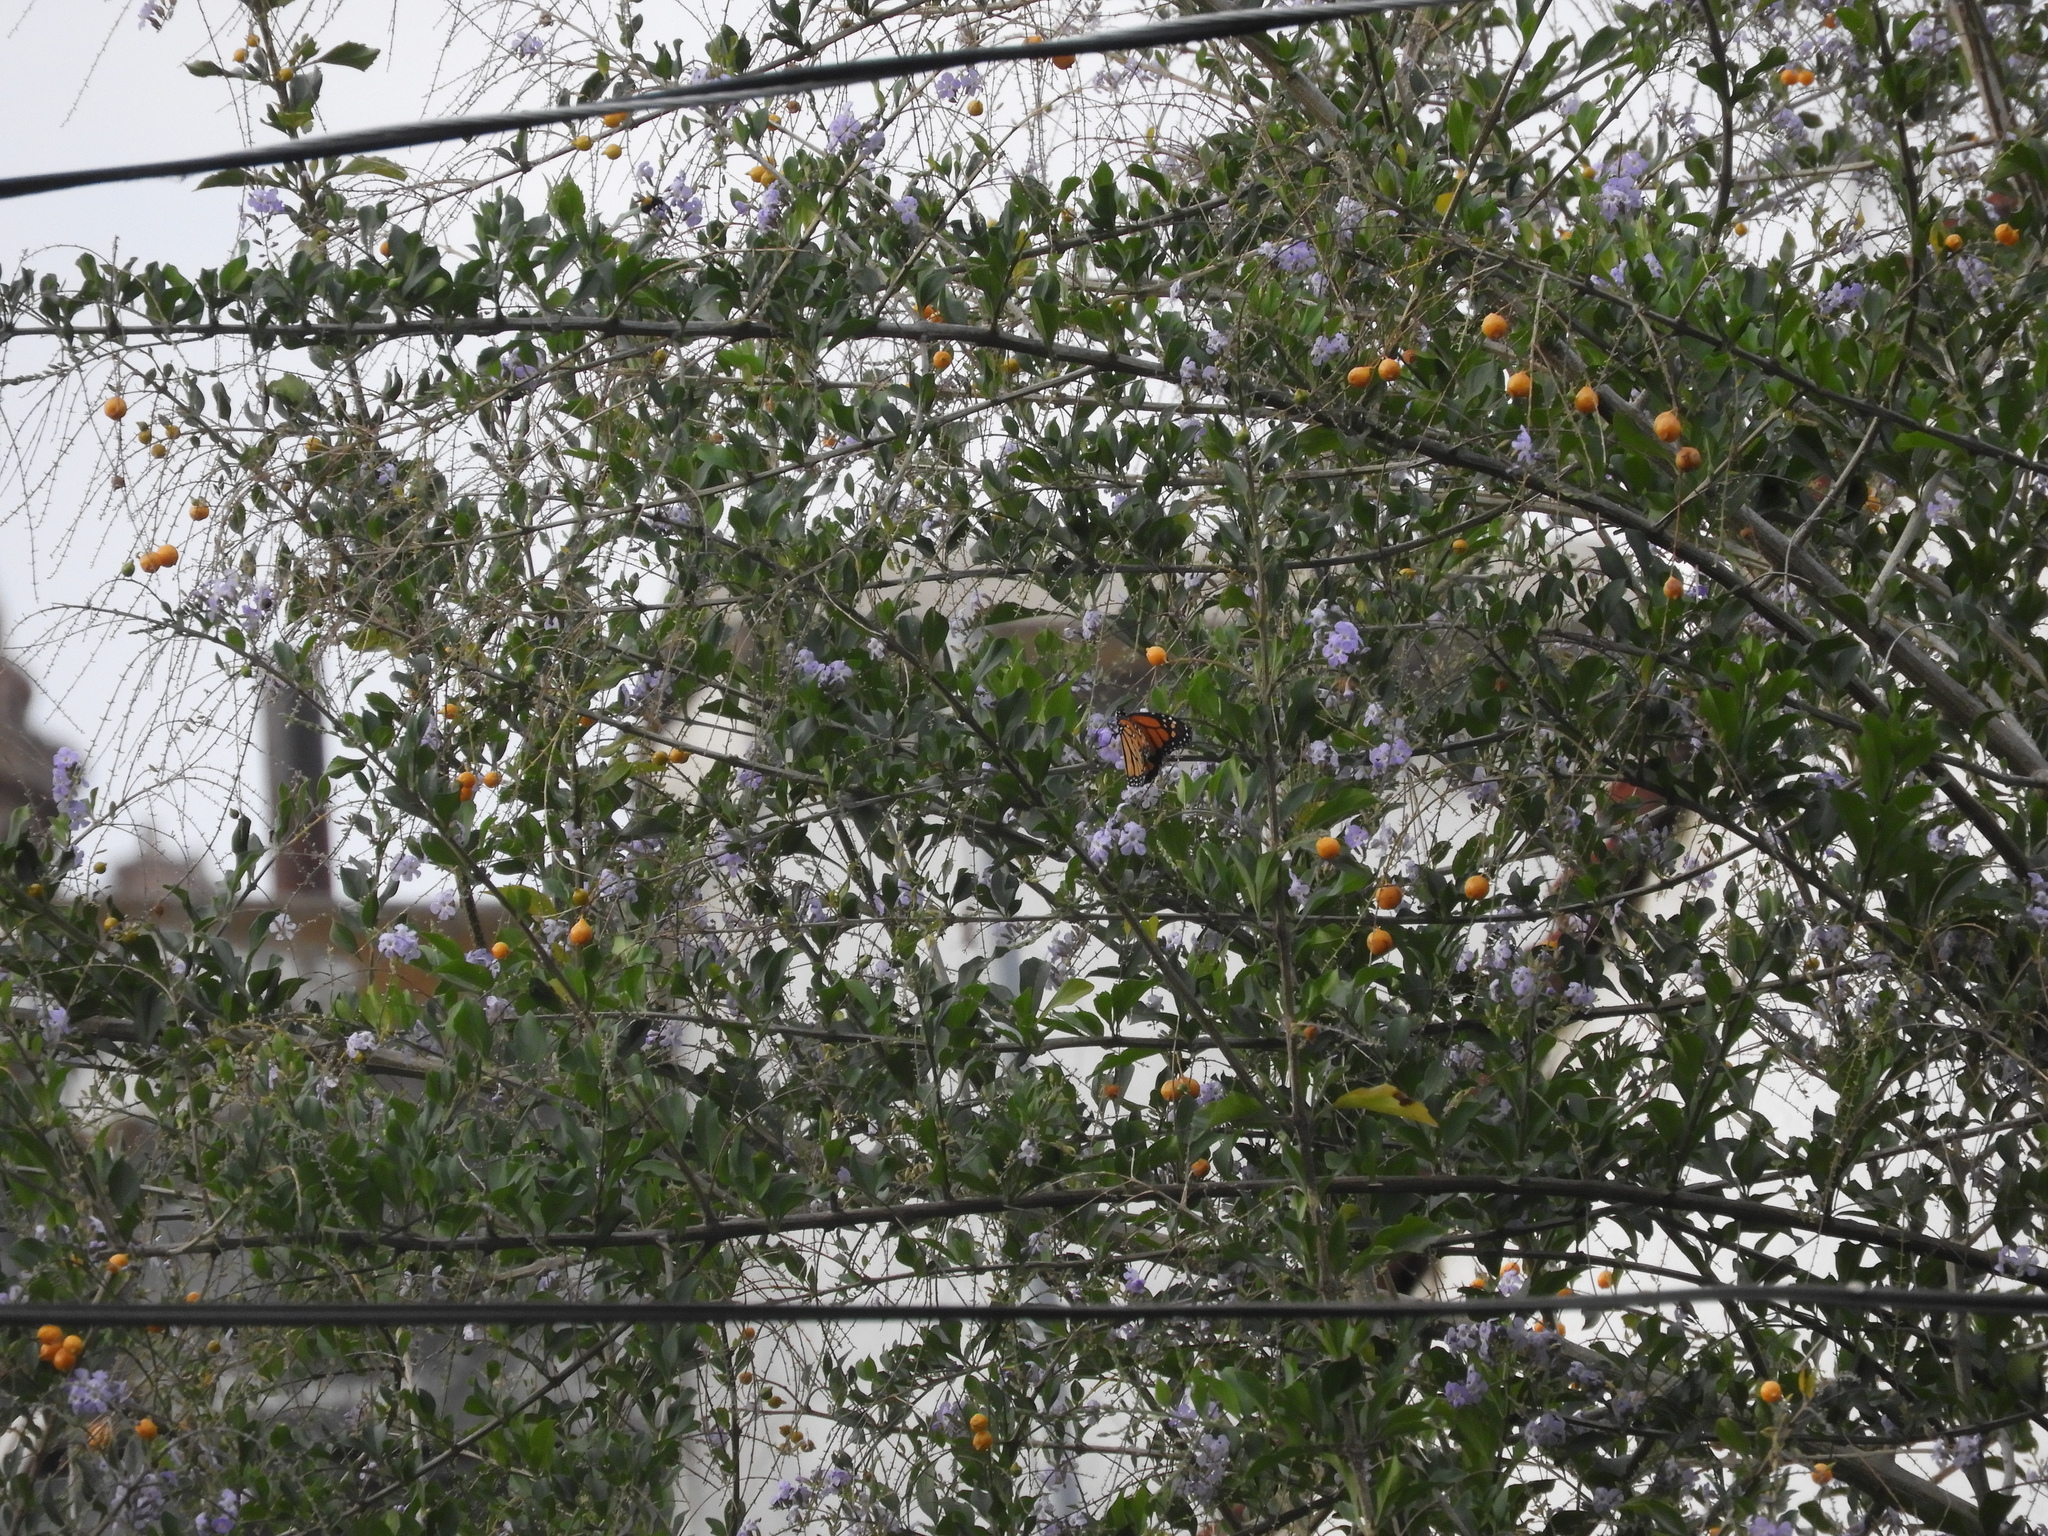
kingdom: Animalia
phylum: Arthropoda
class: Insecta
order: Lepidoptera
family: Nymphalidae
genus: Danaus
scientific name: Danaus plexippus
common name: Monarch
